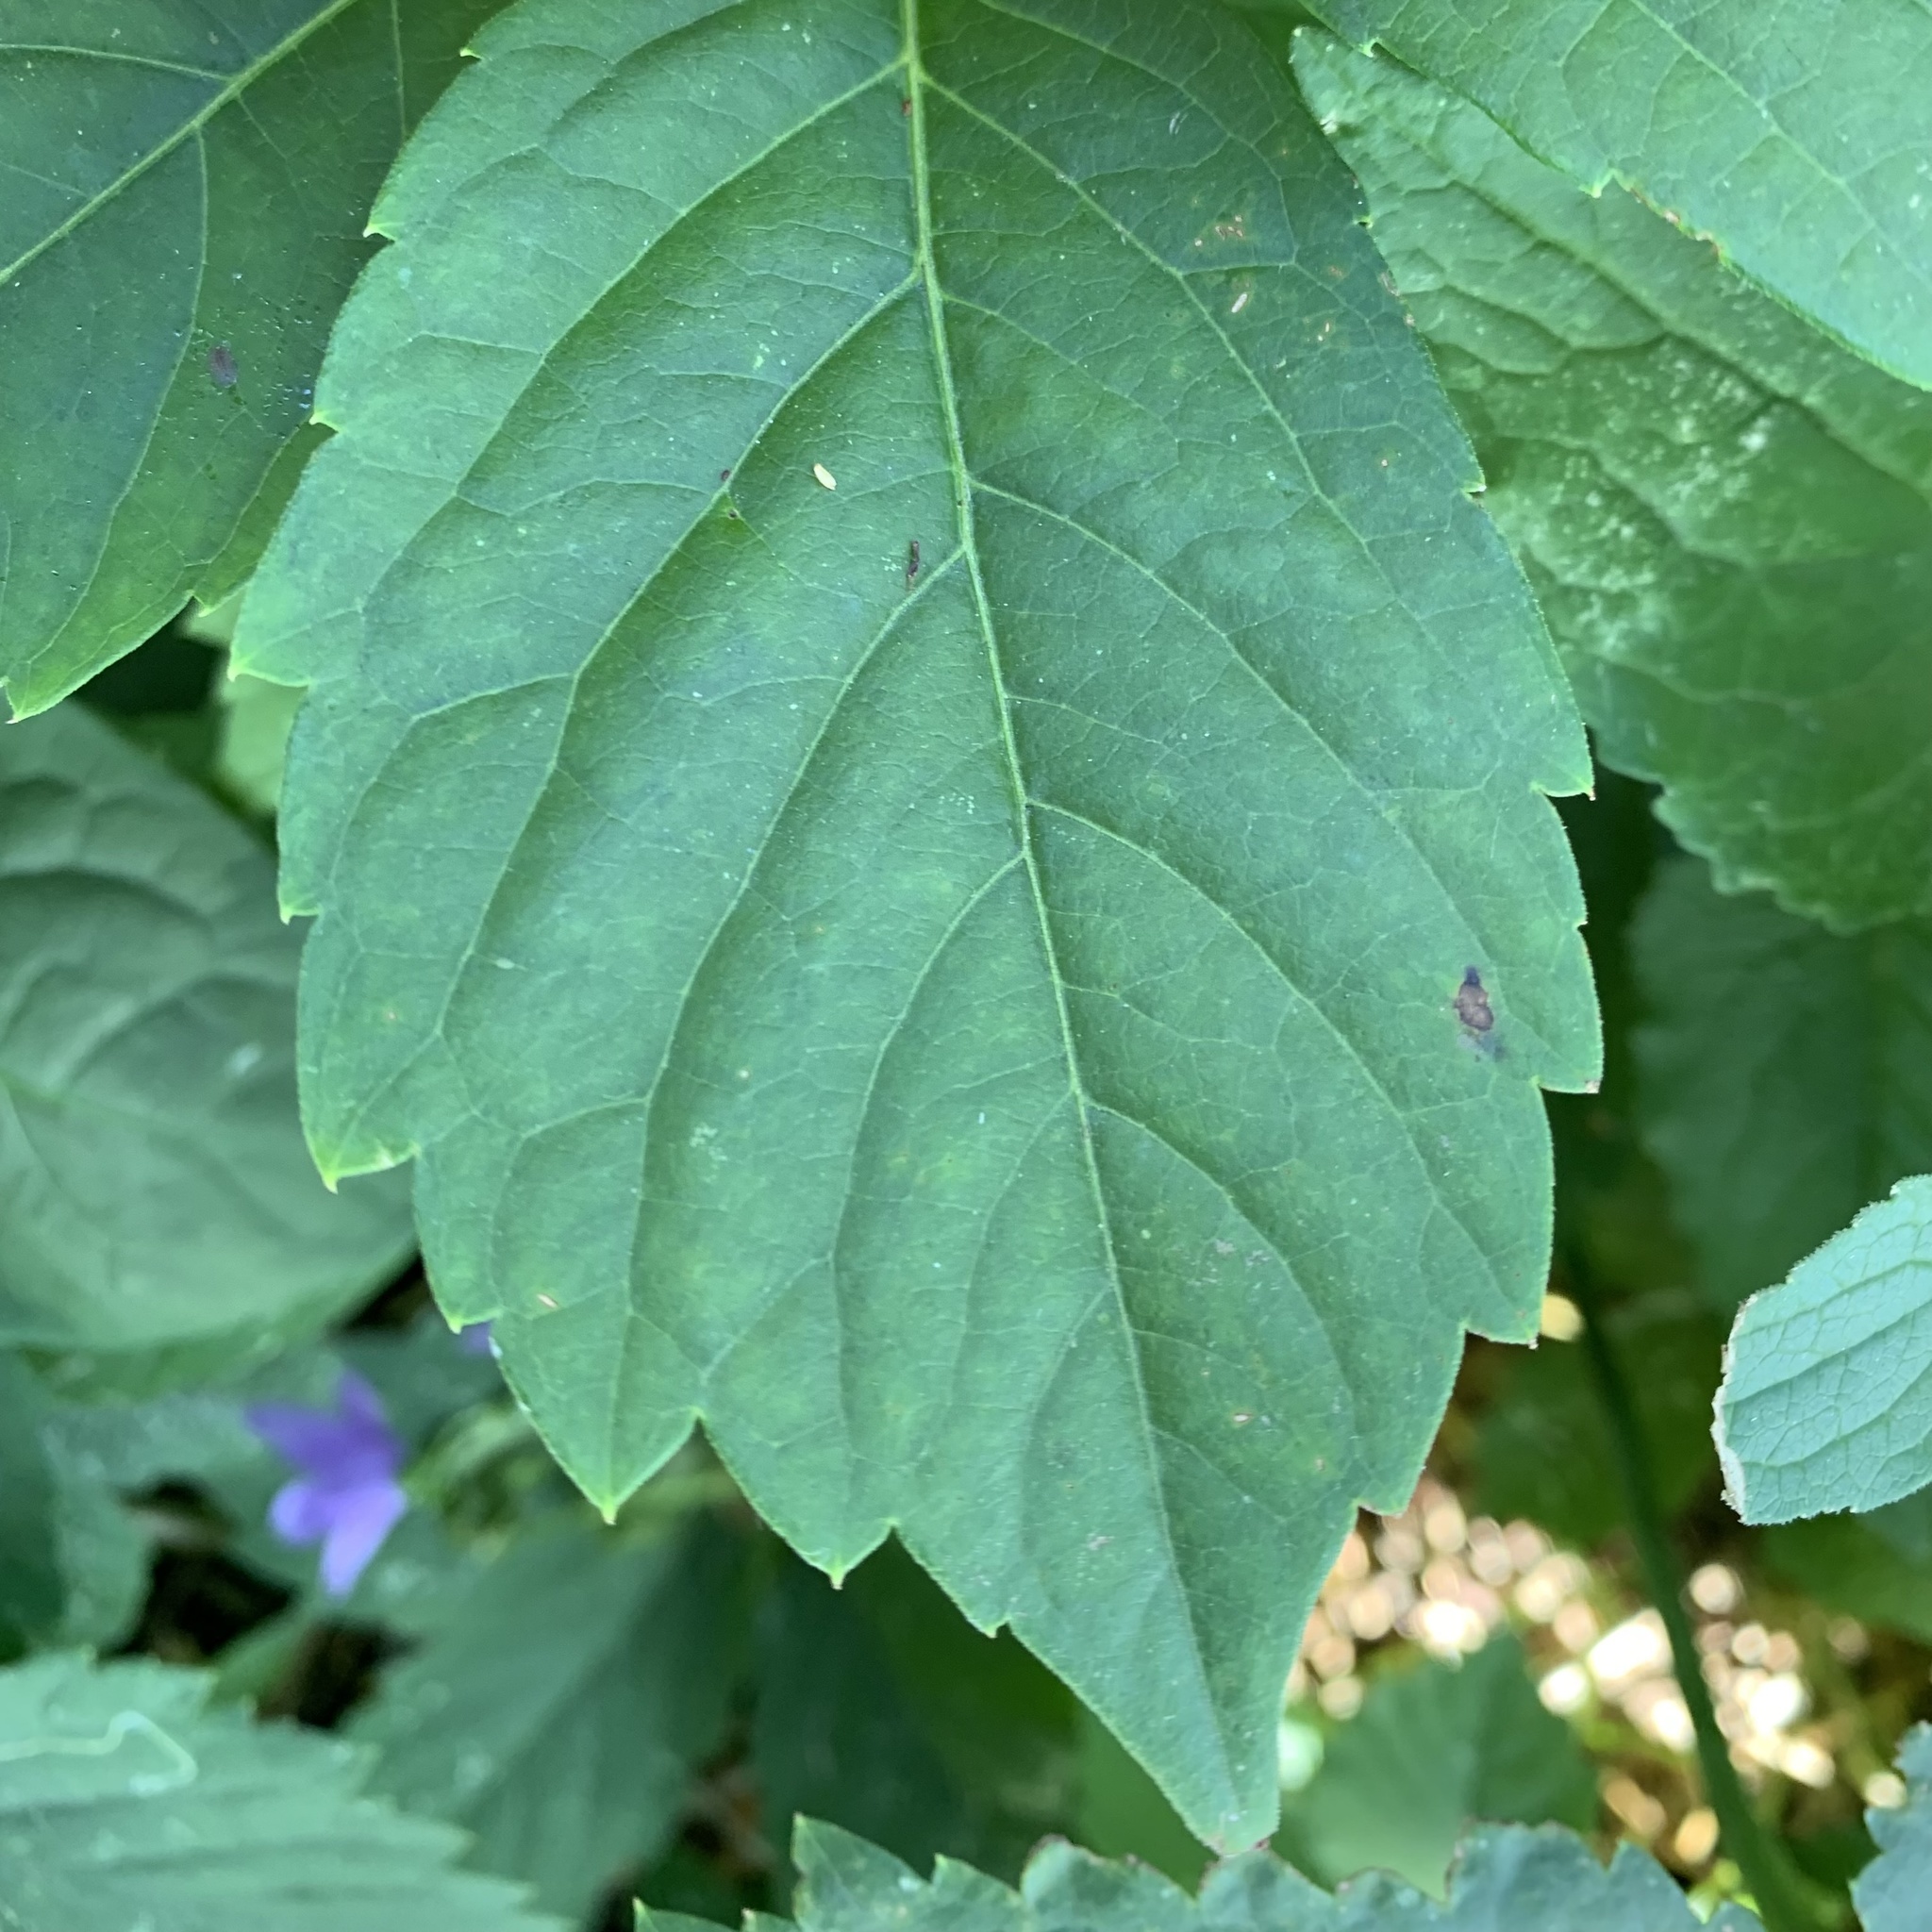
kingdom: Animalia
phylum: Arthropoda
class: Insecta
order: Lepidoptera
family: Gracillariidae
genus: Phyllocnistis
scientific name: Phyllocnistis ampelopsiella
